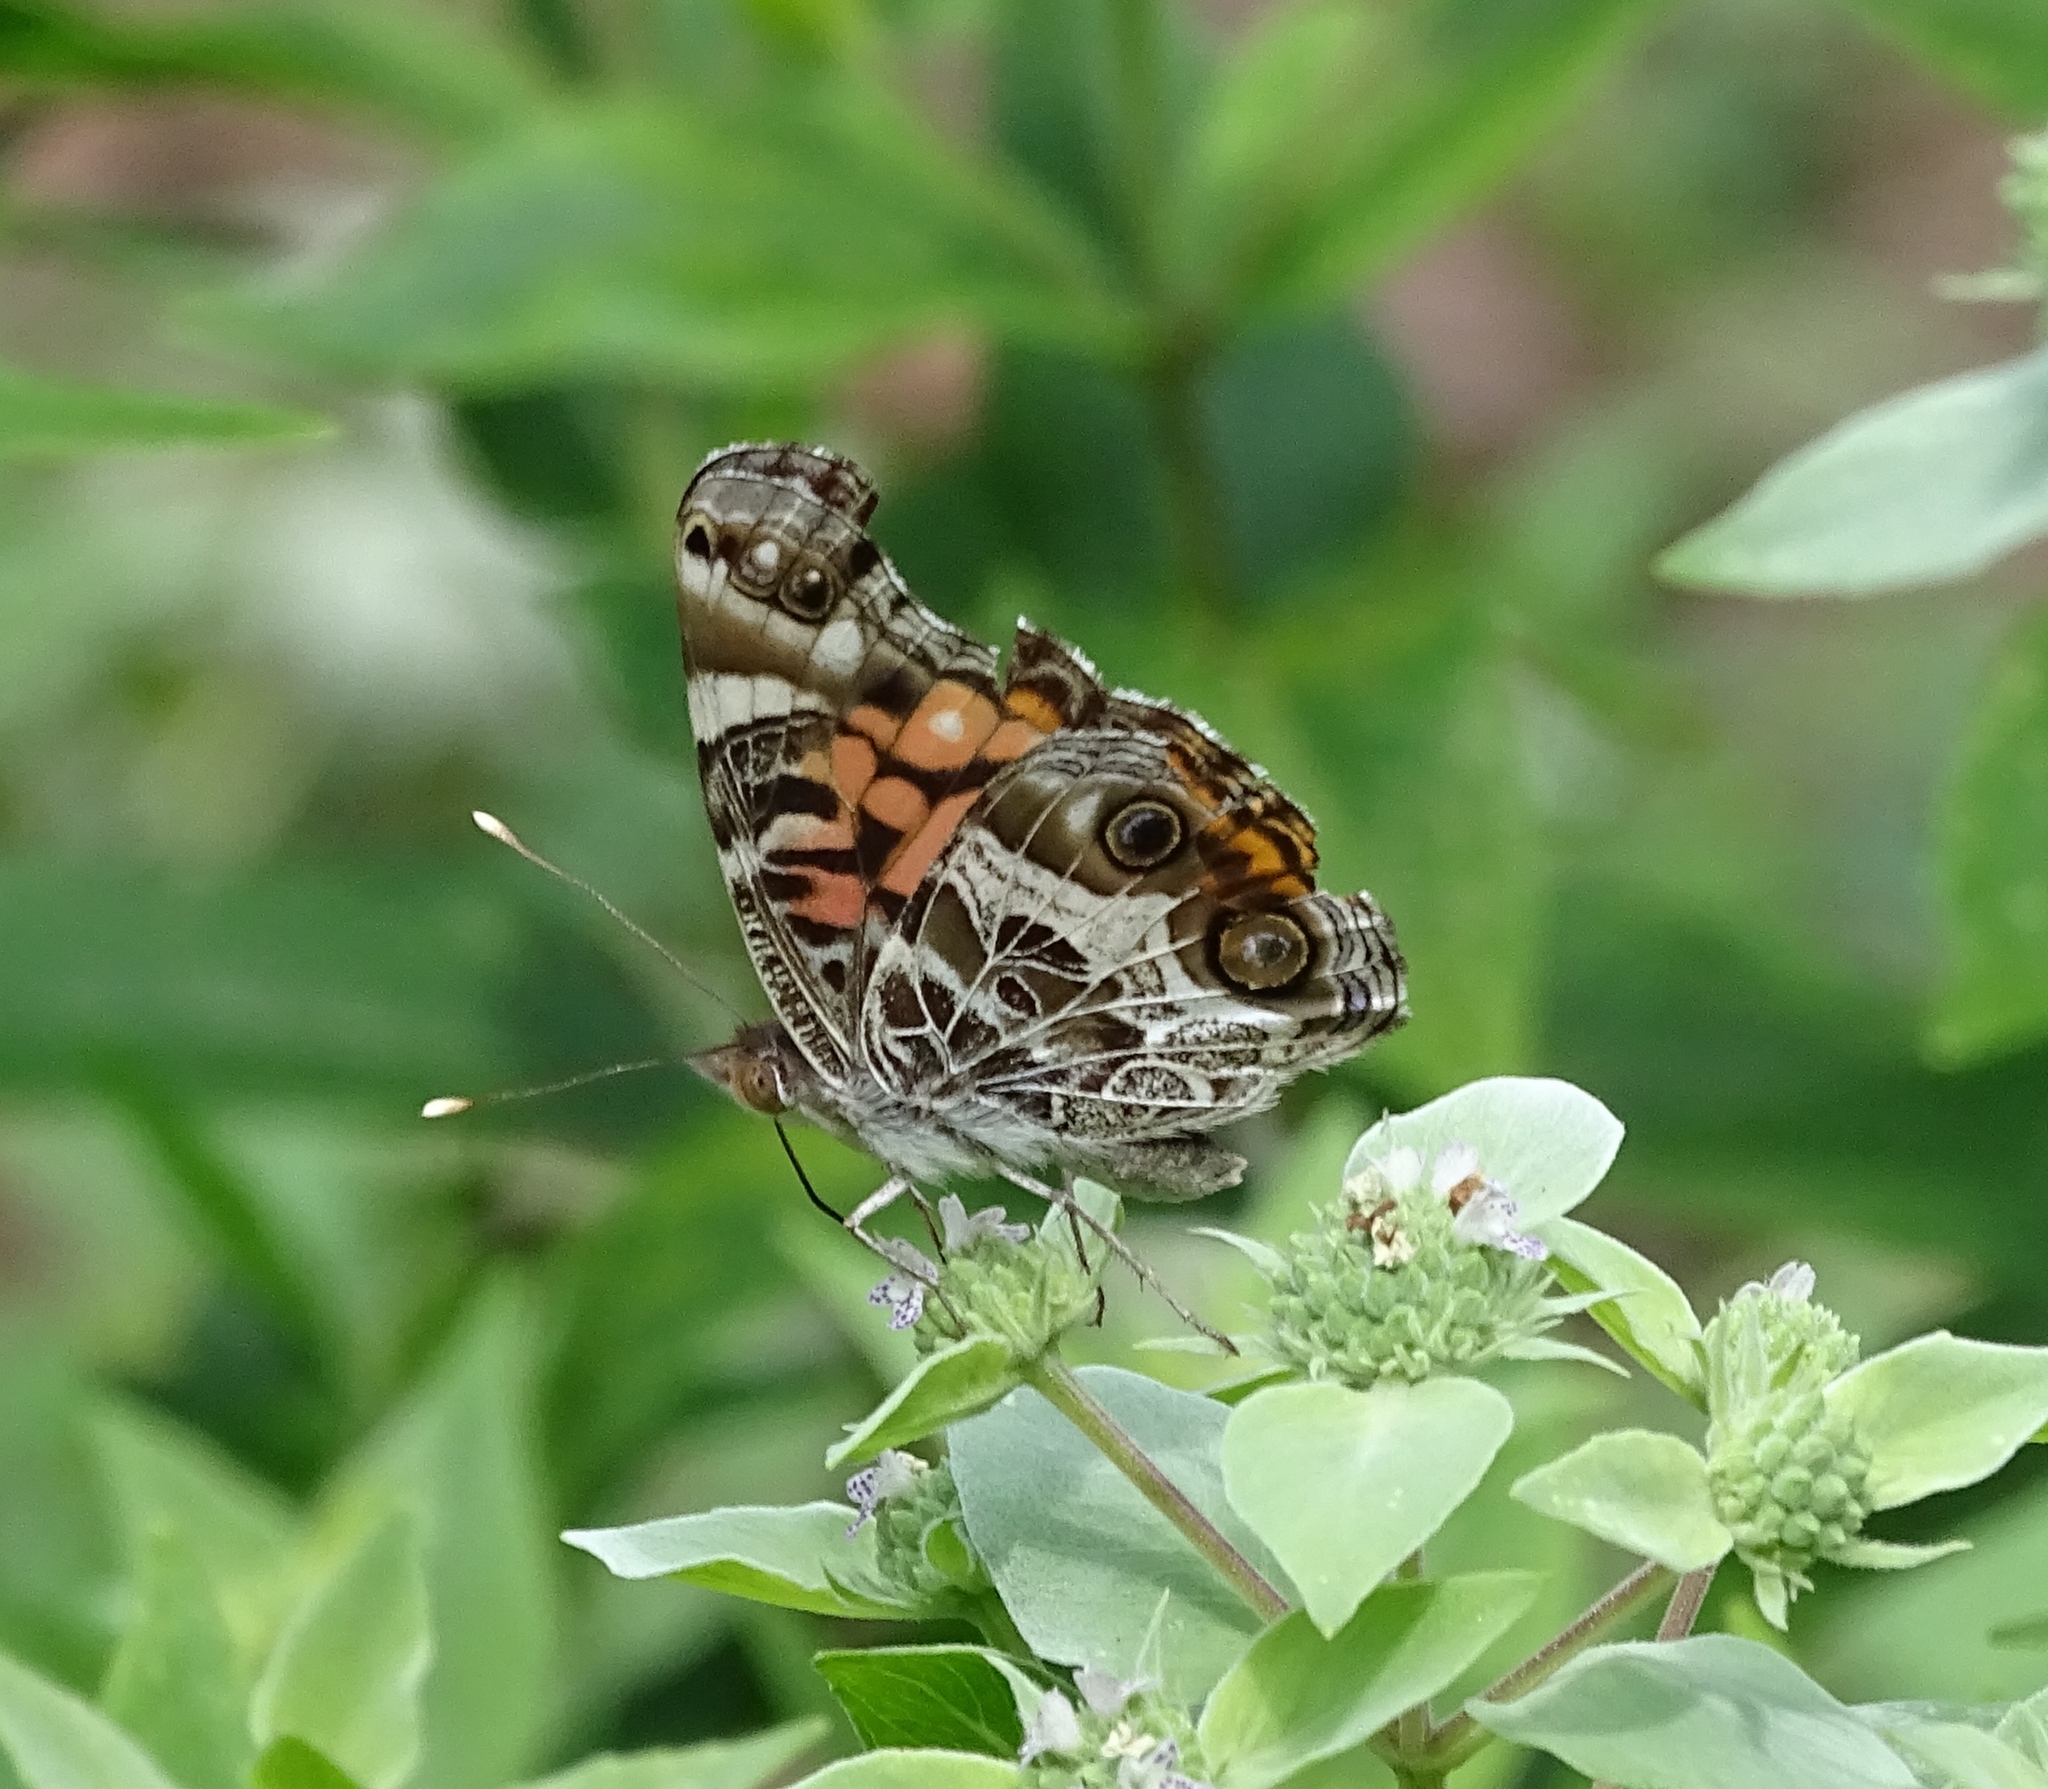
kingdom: Animalia
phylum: Arthropoda
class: Insecta
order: Lepidoptera
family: Nymphalidae
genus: Vanessa
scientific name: Vanessa virginiensis
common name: American lady
